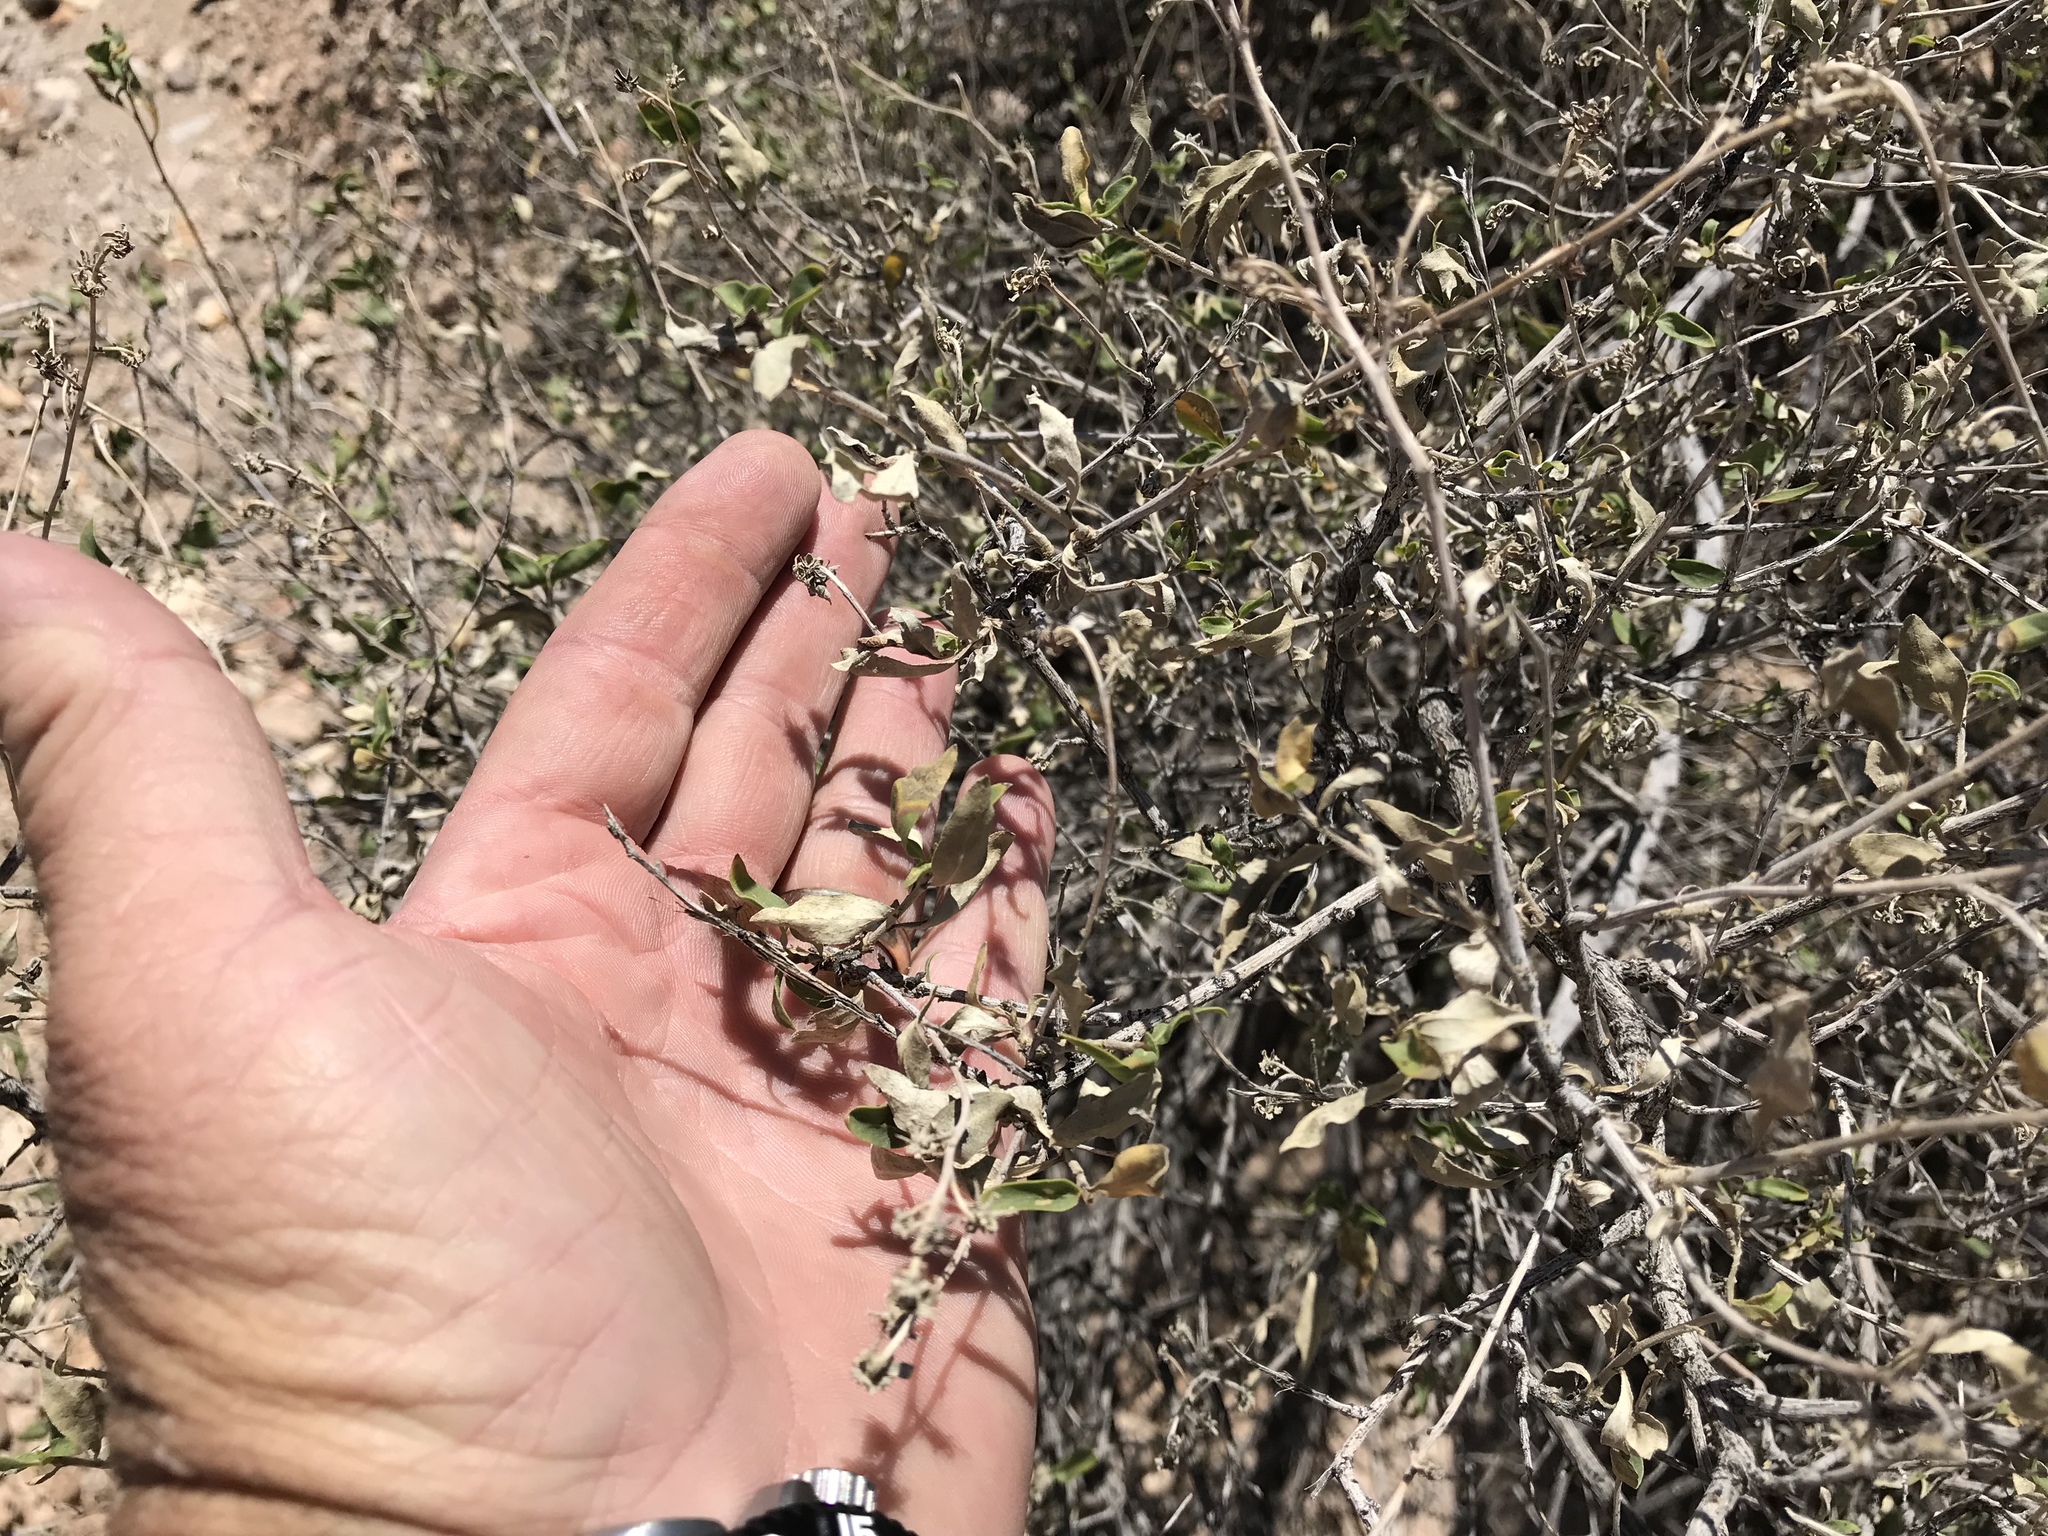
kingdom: Plantae
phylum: Tracheophyta
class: Magnoliopsida
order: Asterales
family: Asteraceae
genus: Flourensia
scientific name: Flourensia cernua
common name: Varnishbush
